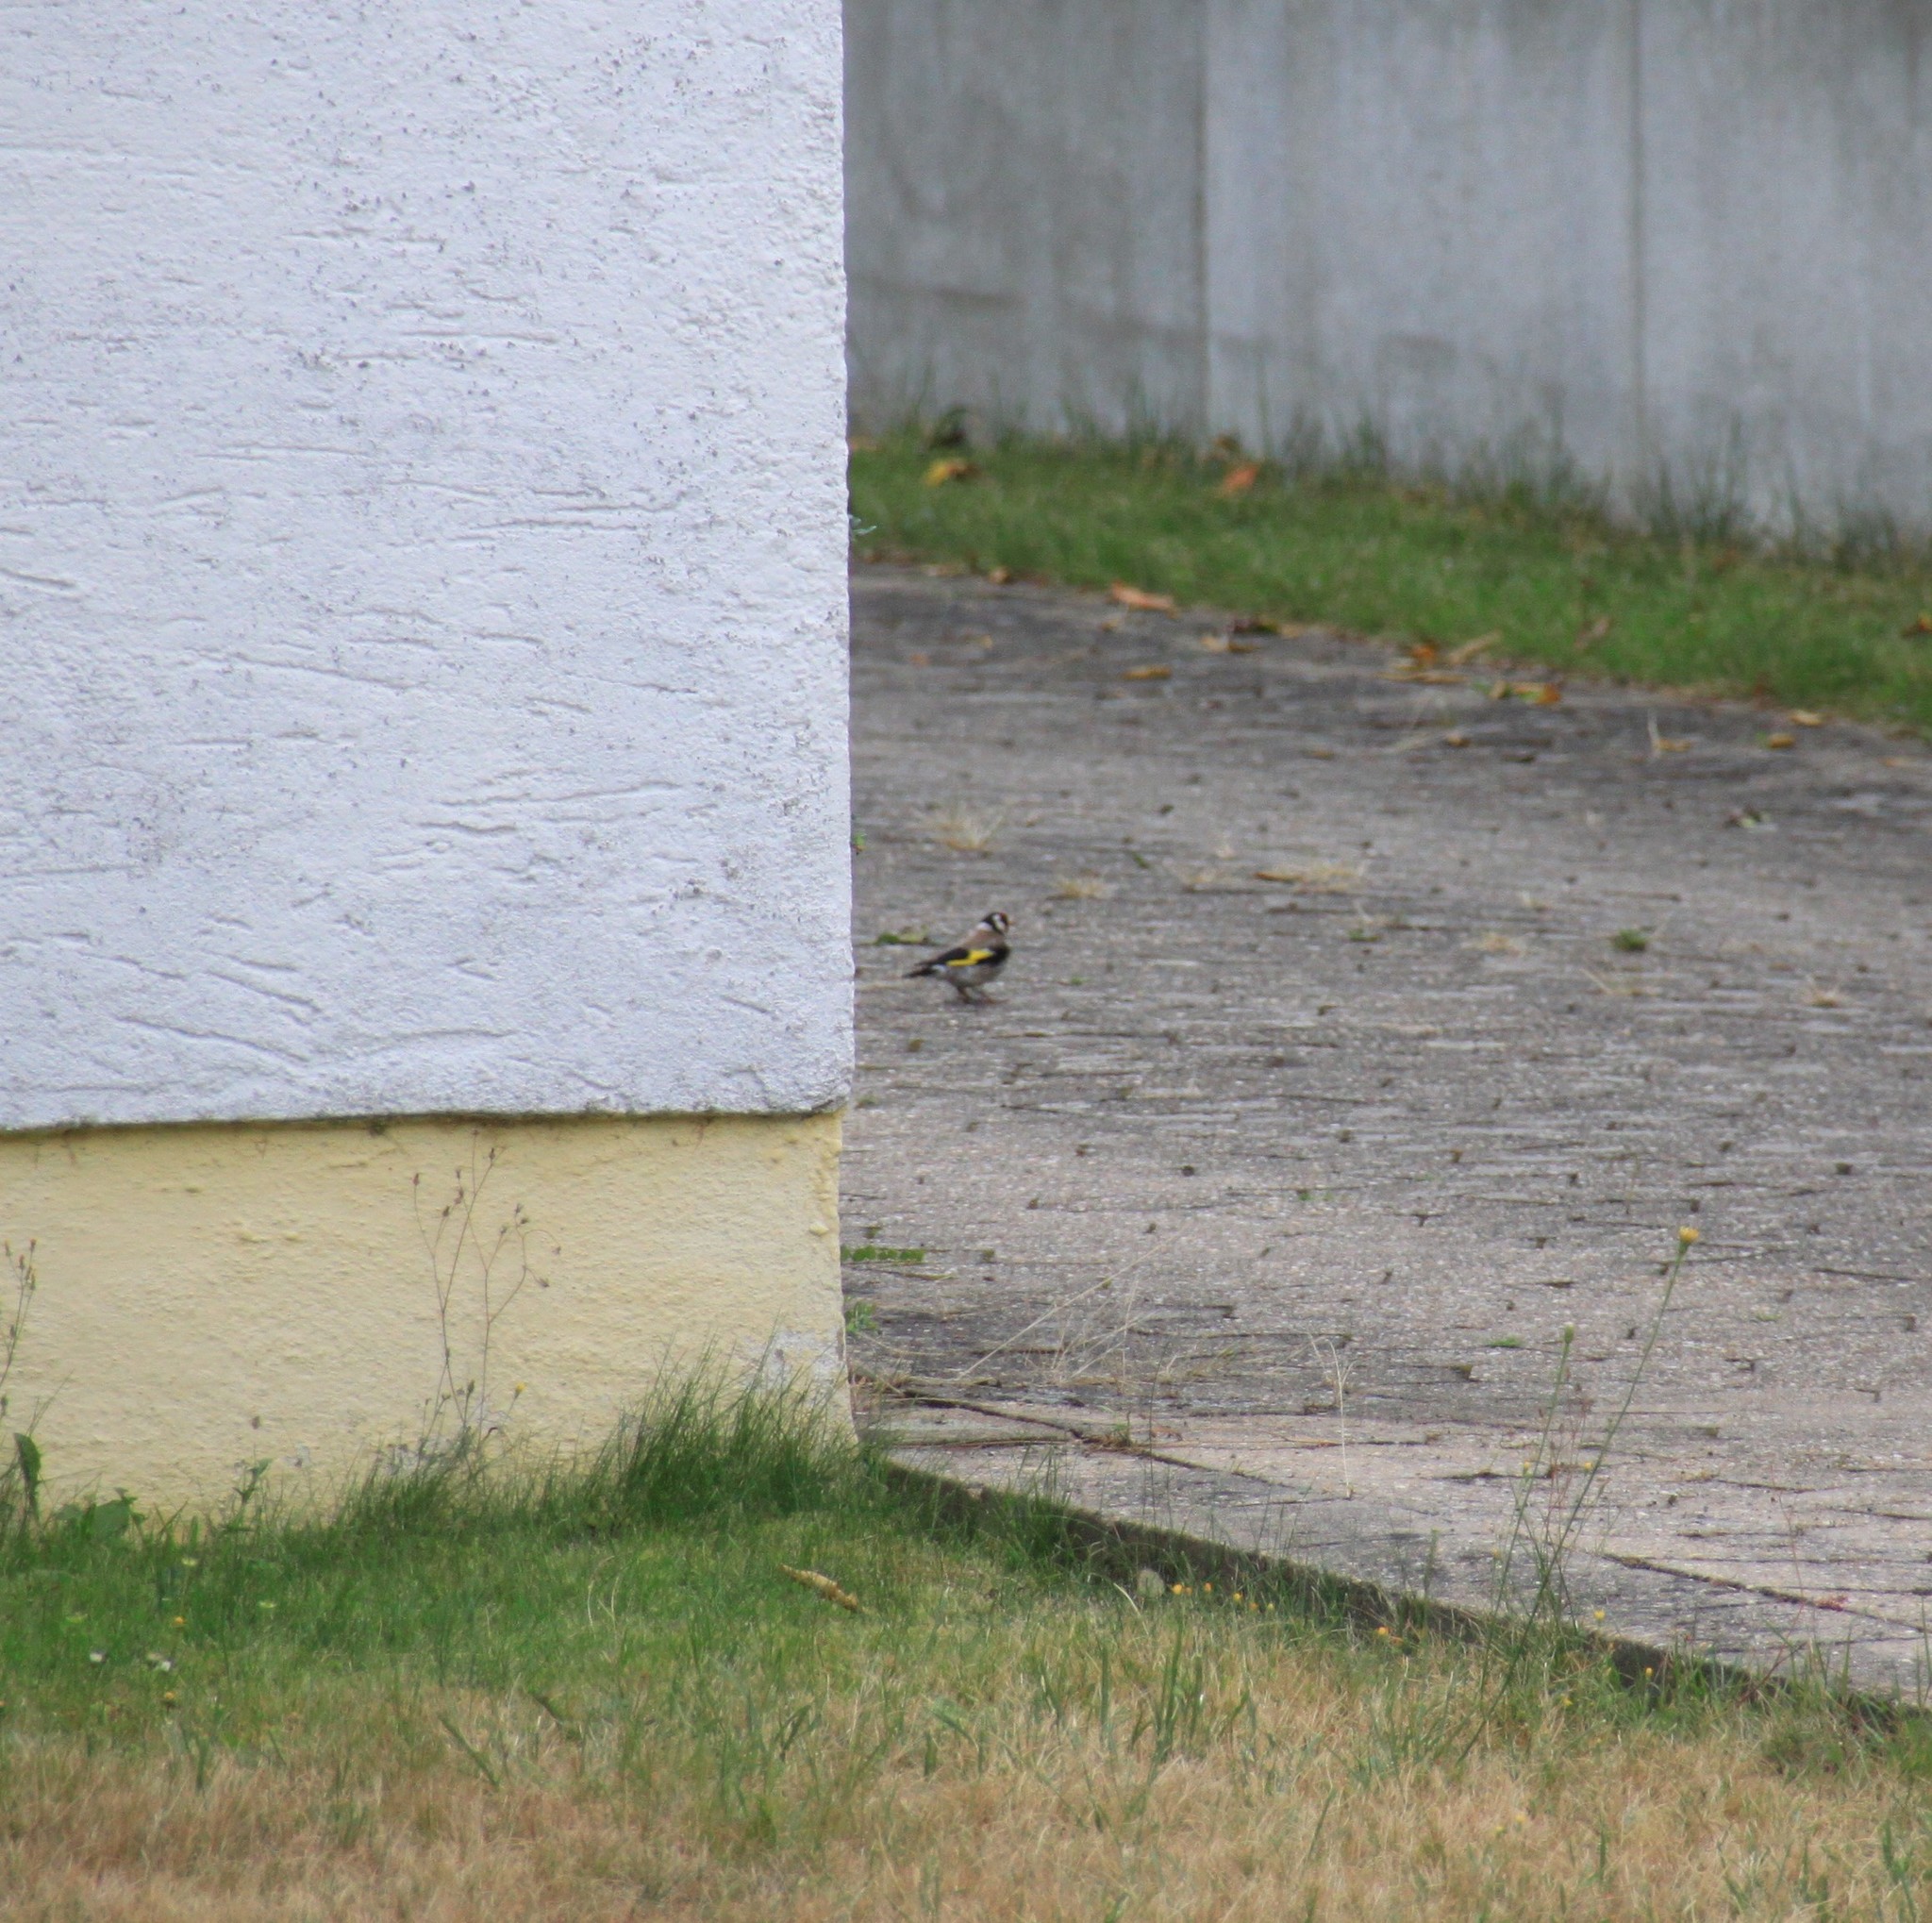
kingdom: Animalia
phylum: Chordata
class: Aves
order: Passeriformes
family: Fringillidae
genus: Carduelis
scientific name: Carduelis carduelis
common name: European goldfinch
